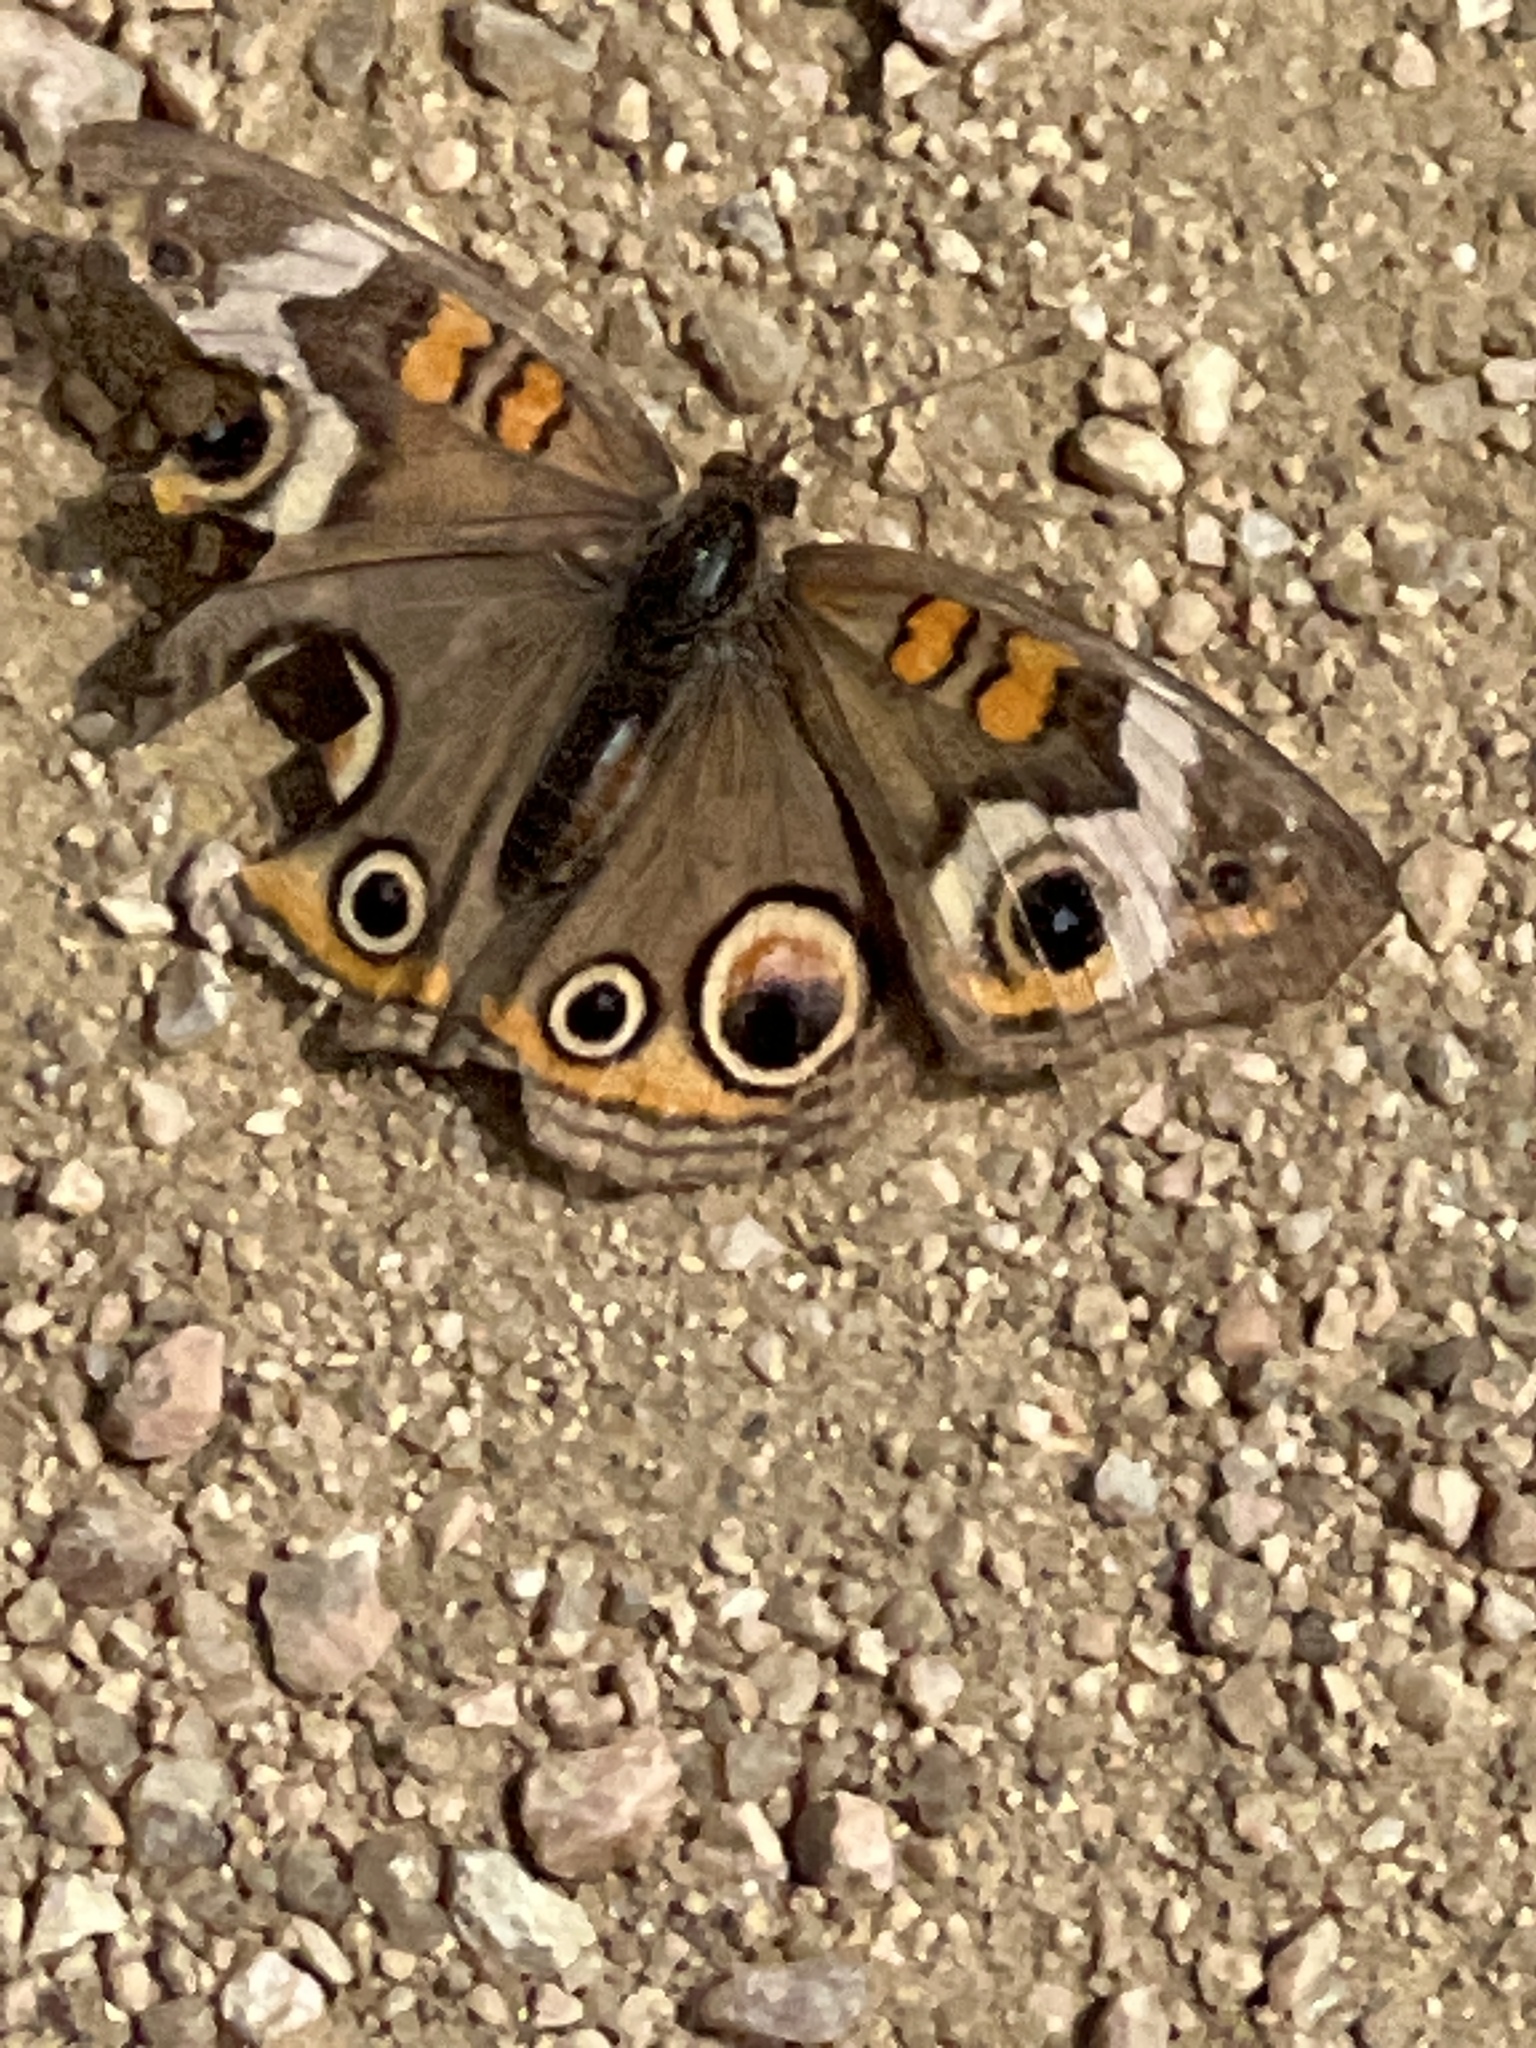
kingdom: Animalia
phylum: Arthropoda
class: Insecta
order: Lepidoptera
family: Nymphalidae
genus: Junonia
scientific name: Junonia coenia
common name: Common buckeye
